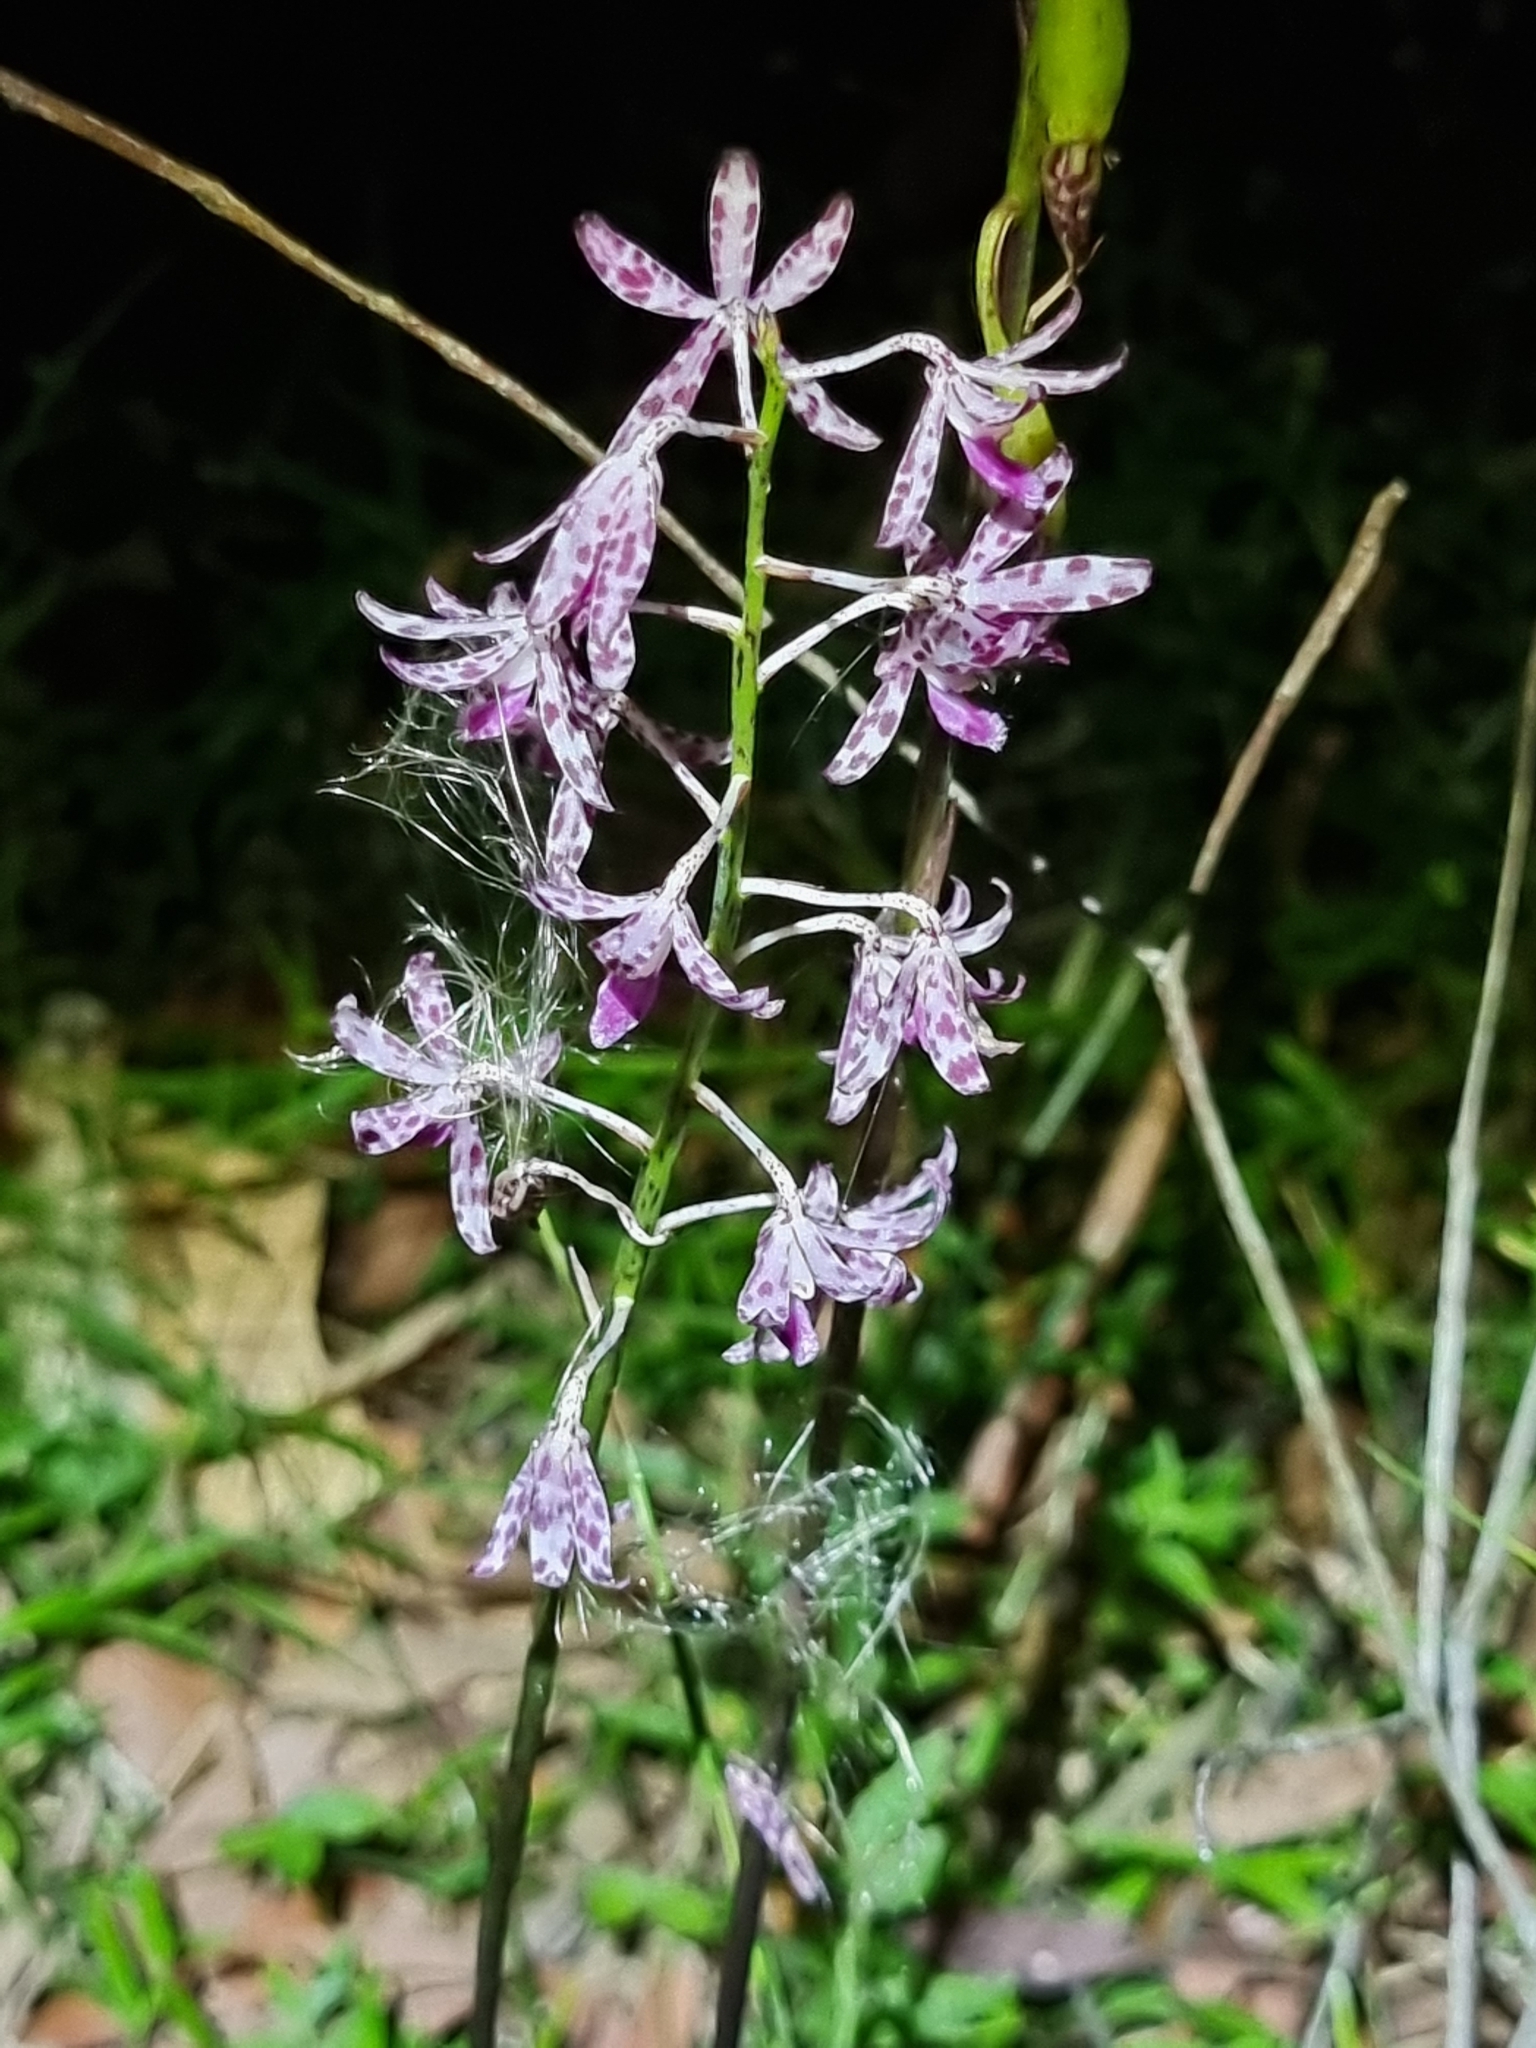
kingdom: Plantae
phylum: Tracheophyta
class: Liliopsida
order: Asparagales
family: Orchidaceae
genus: Dipodium
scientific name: Dipodium variegatum
